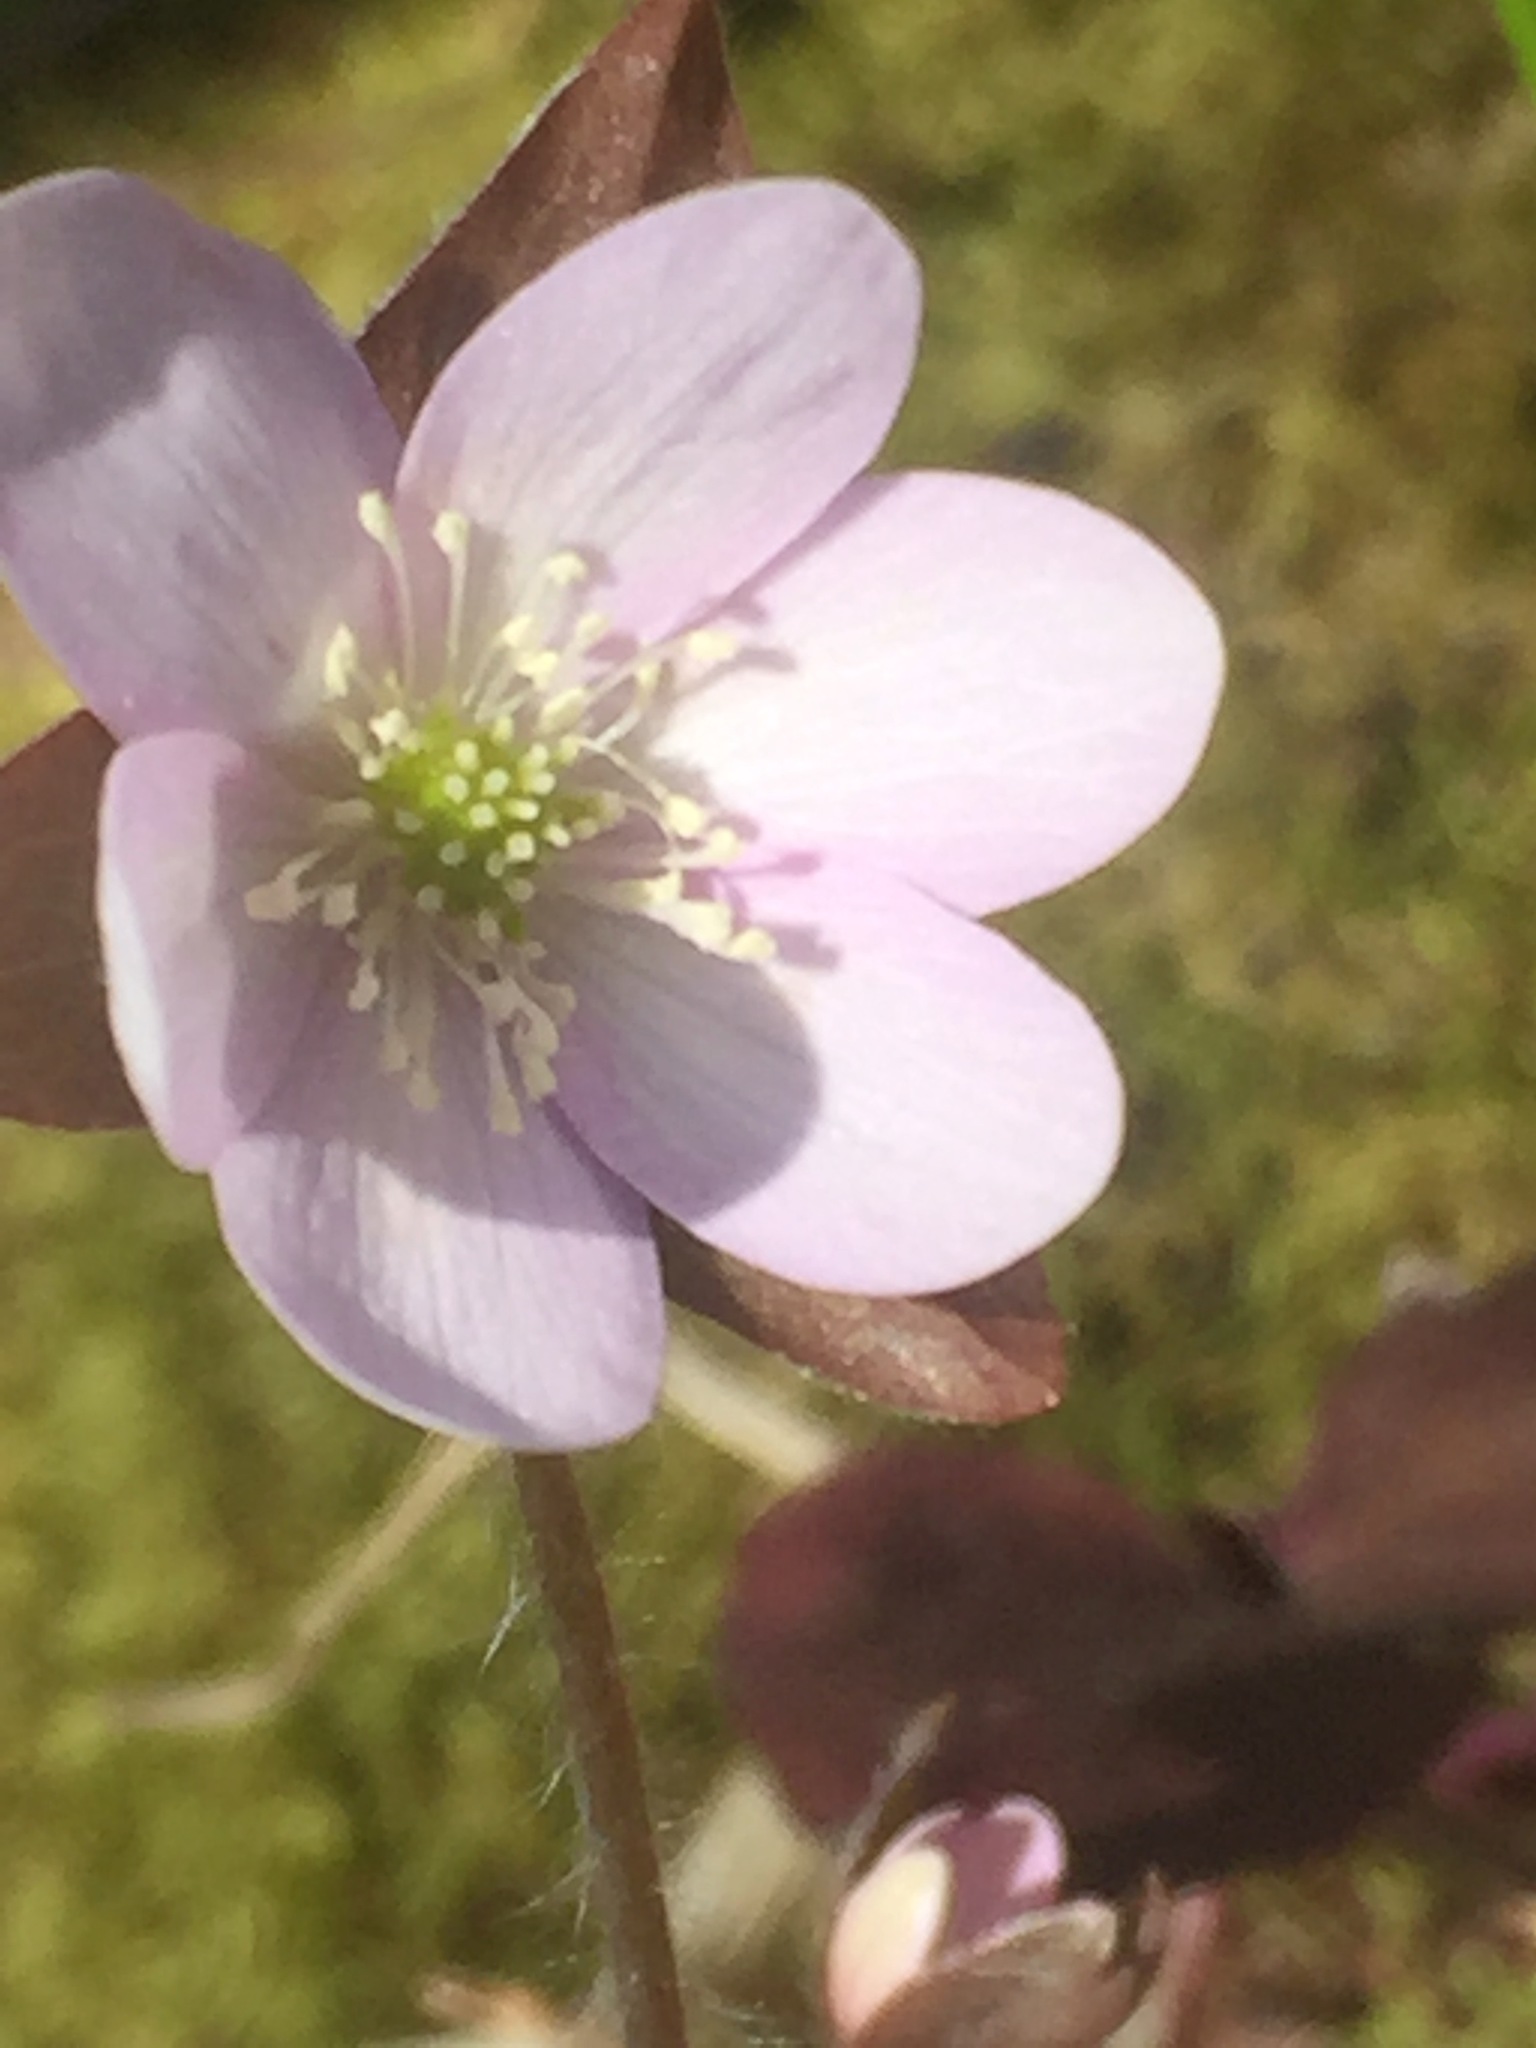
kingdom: Plantae
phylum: Tracheophyta
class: Magnoliopsida
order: Ranunculales
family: Ranunculaceae
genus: Hepatica
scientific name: Hepatica acutiloba
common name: Sharp-lobed hepatica
